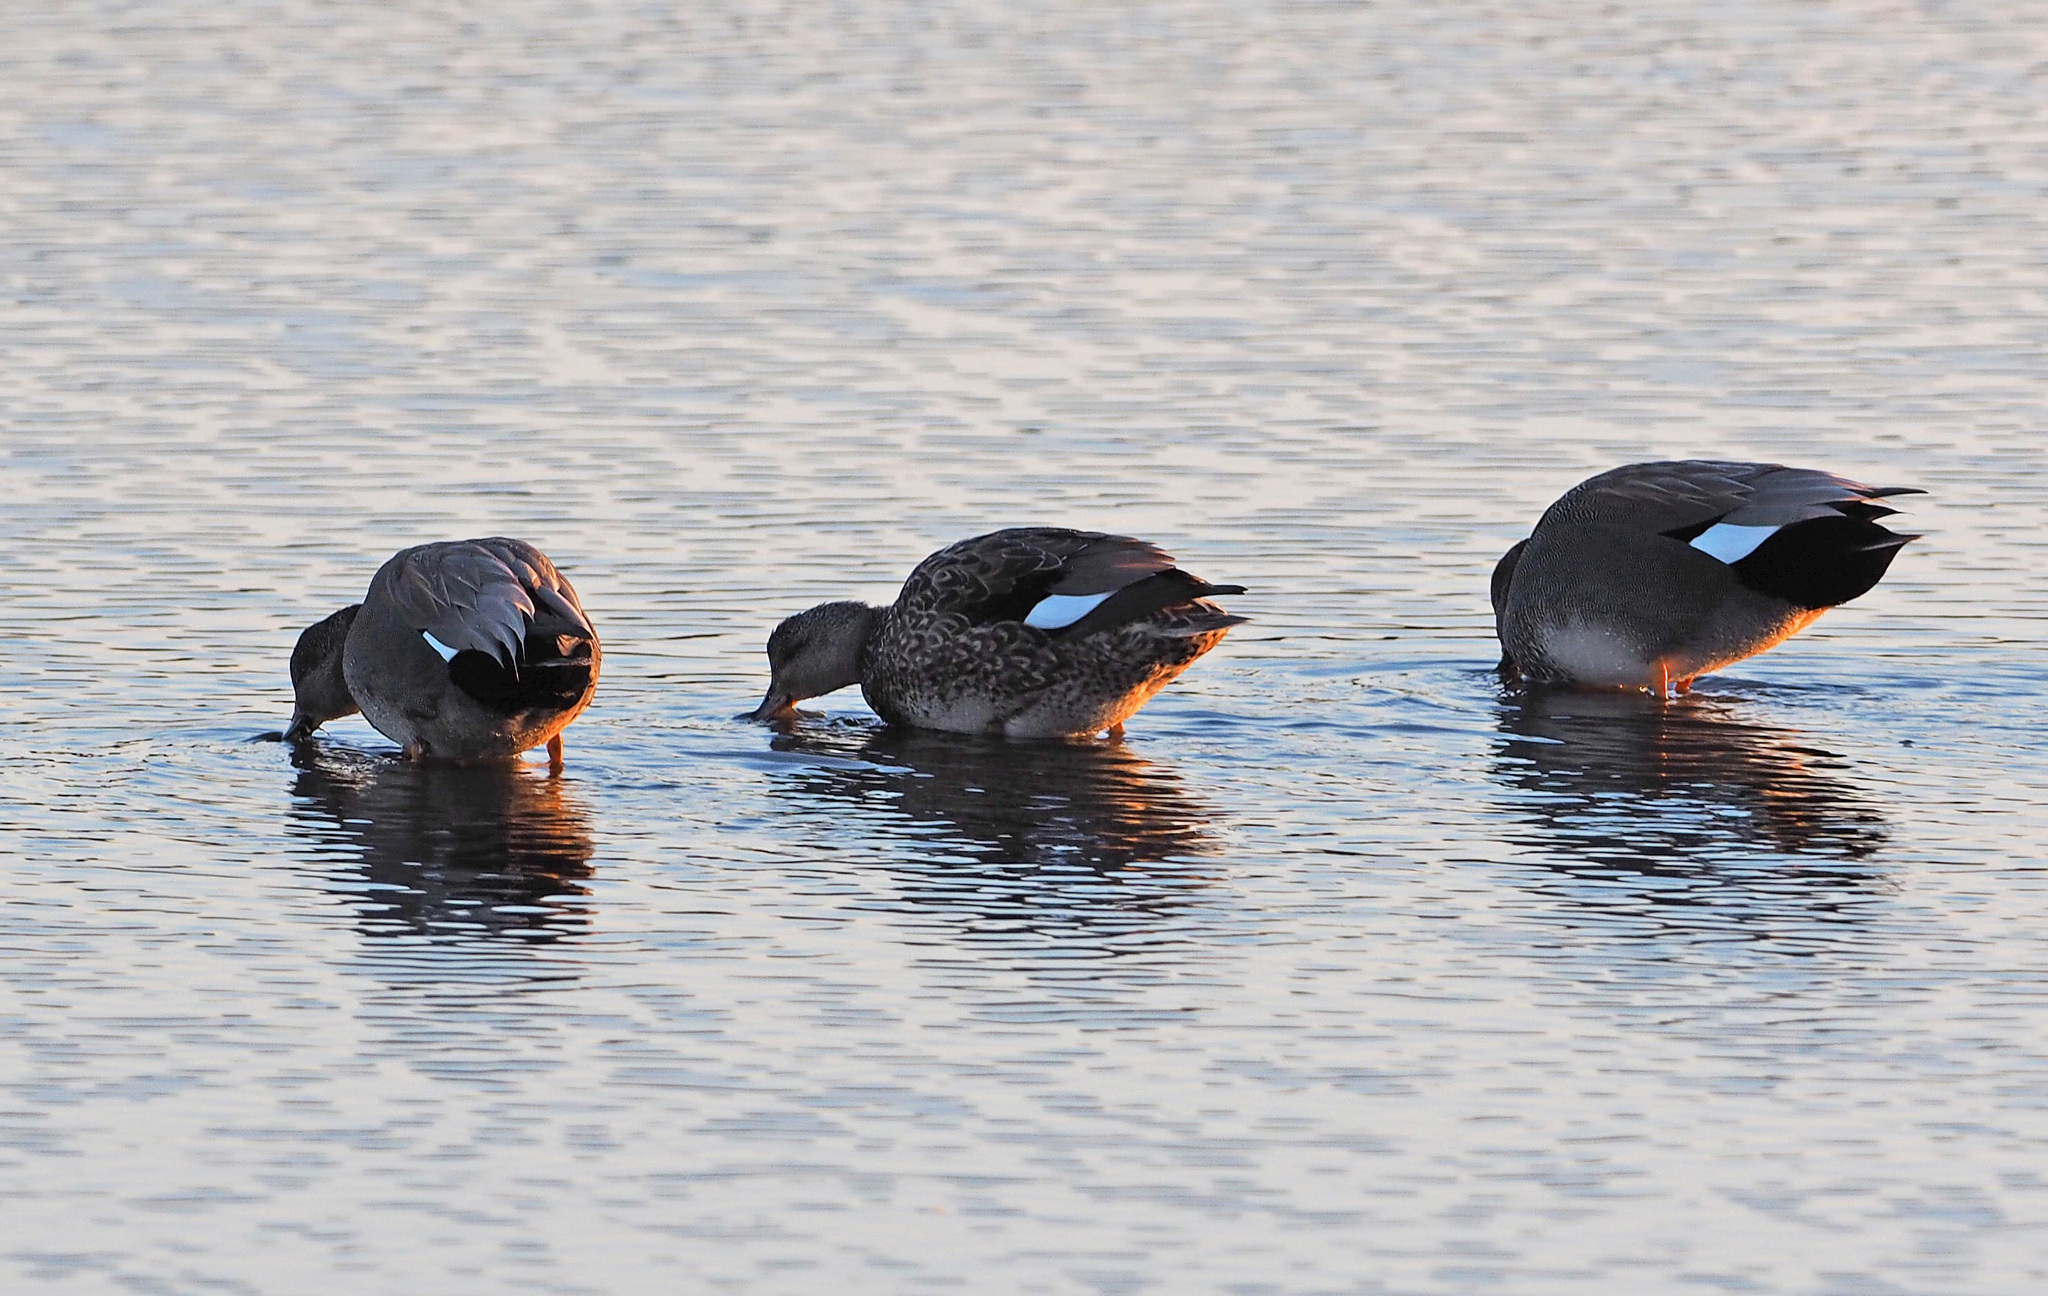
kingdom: Animalia
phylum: Chordata
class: Aves
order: Anseriformes
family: Anatidae
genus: Mareca
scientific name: Mareca strepera
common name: Gadwall
